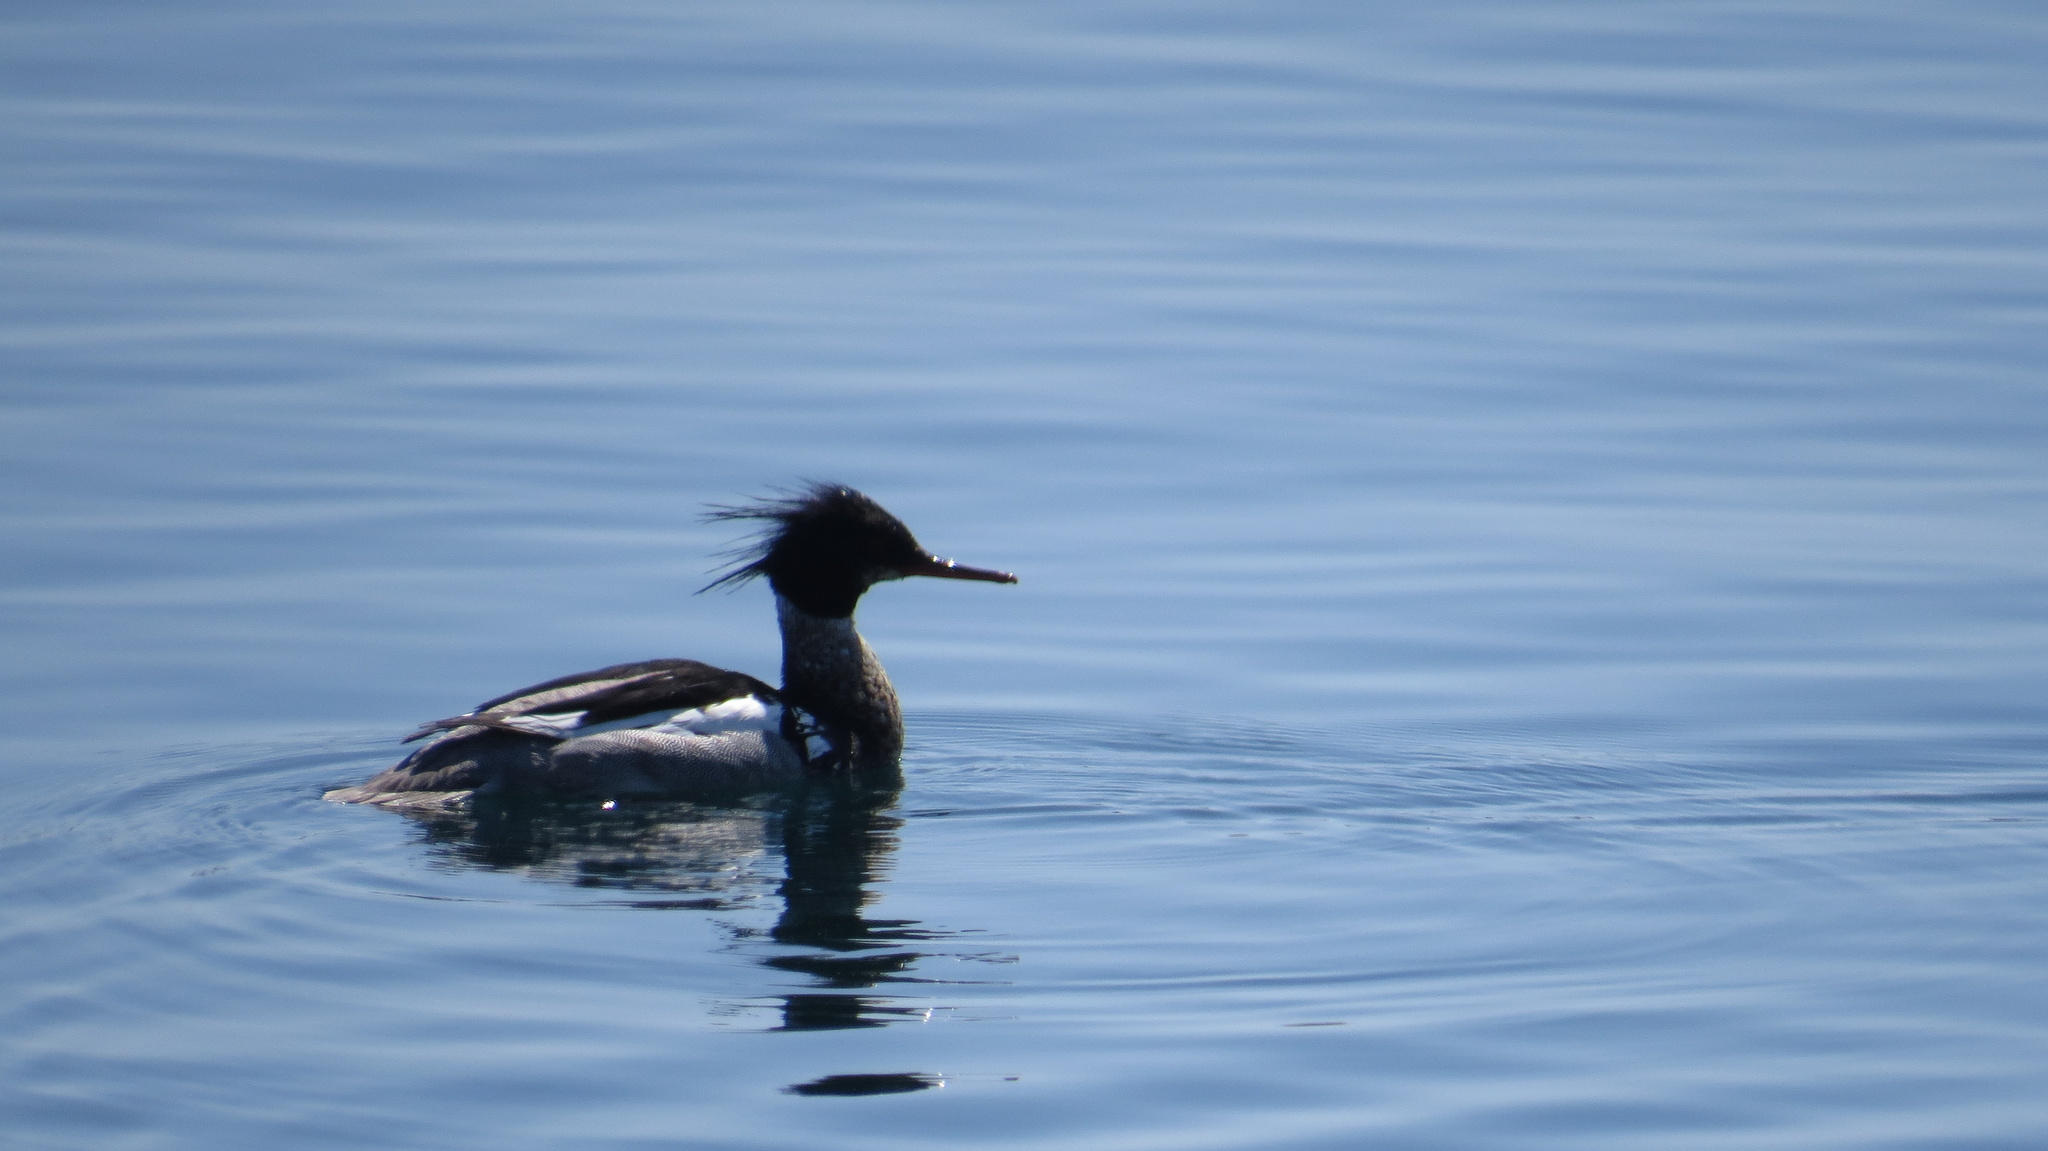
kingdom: Animalia
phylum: Chordata
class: Aves
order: Anseriformes
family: Anatidae
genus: Mergus
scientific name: Mergus serrator
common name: Red-breasted merganser
